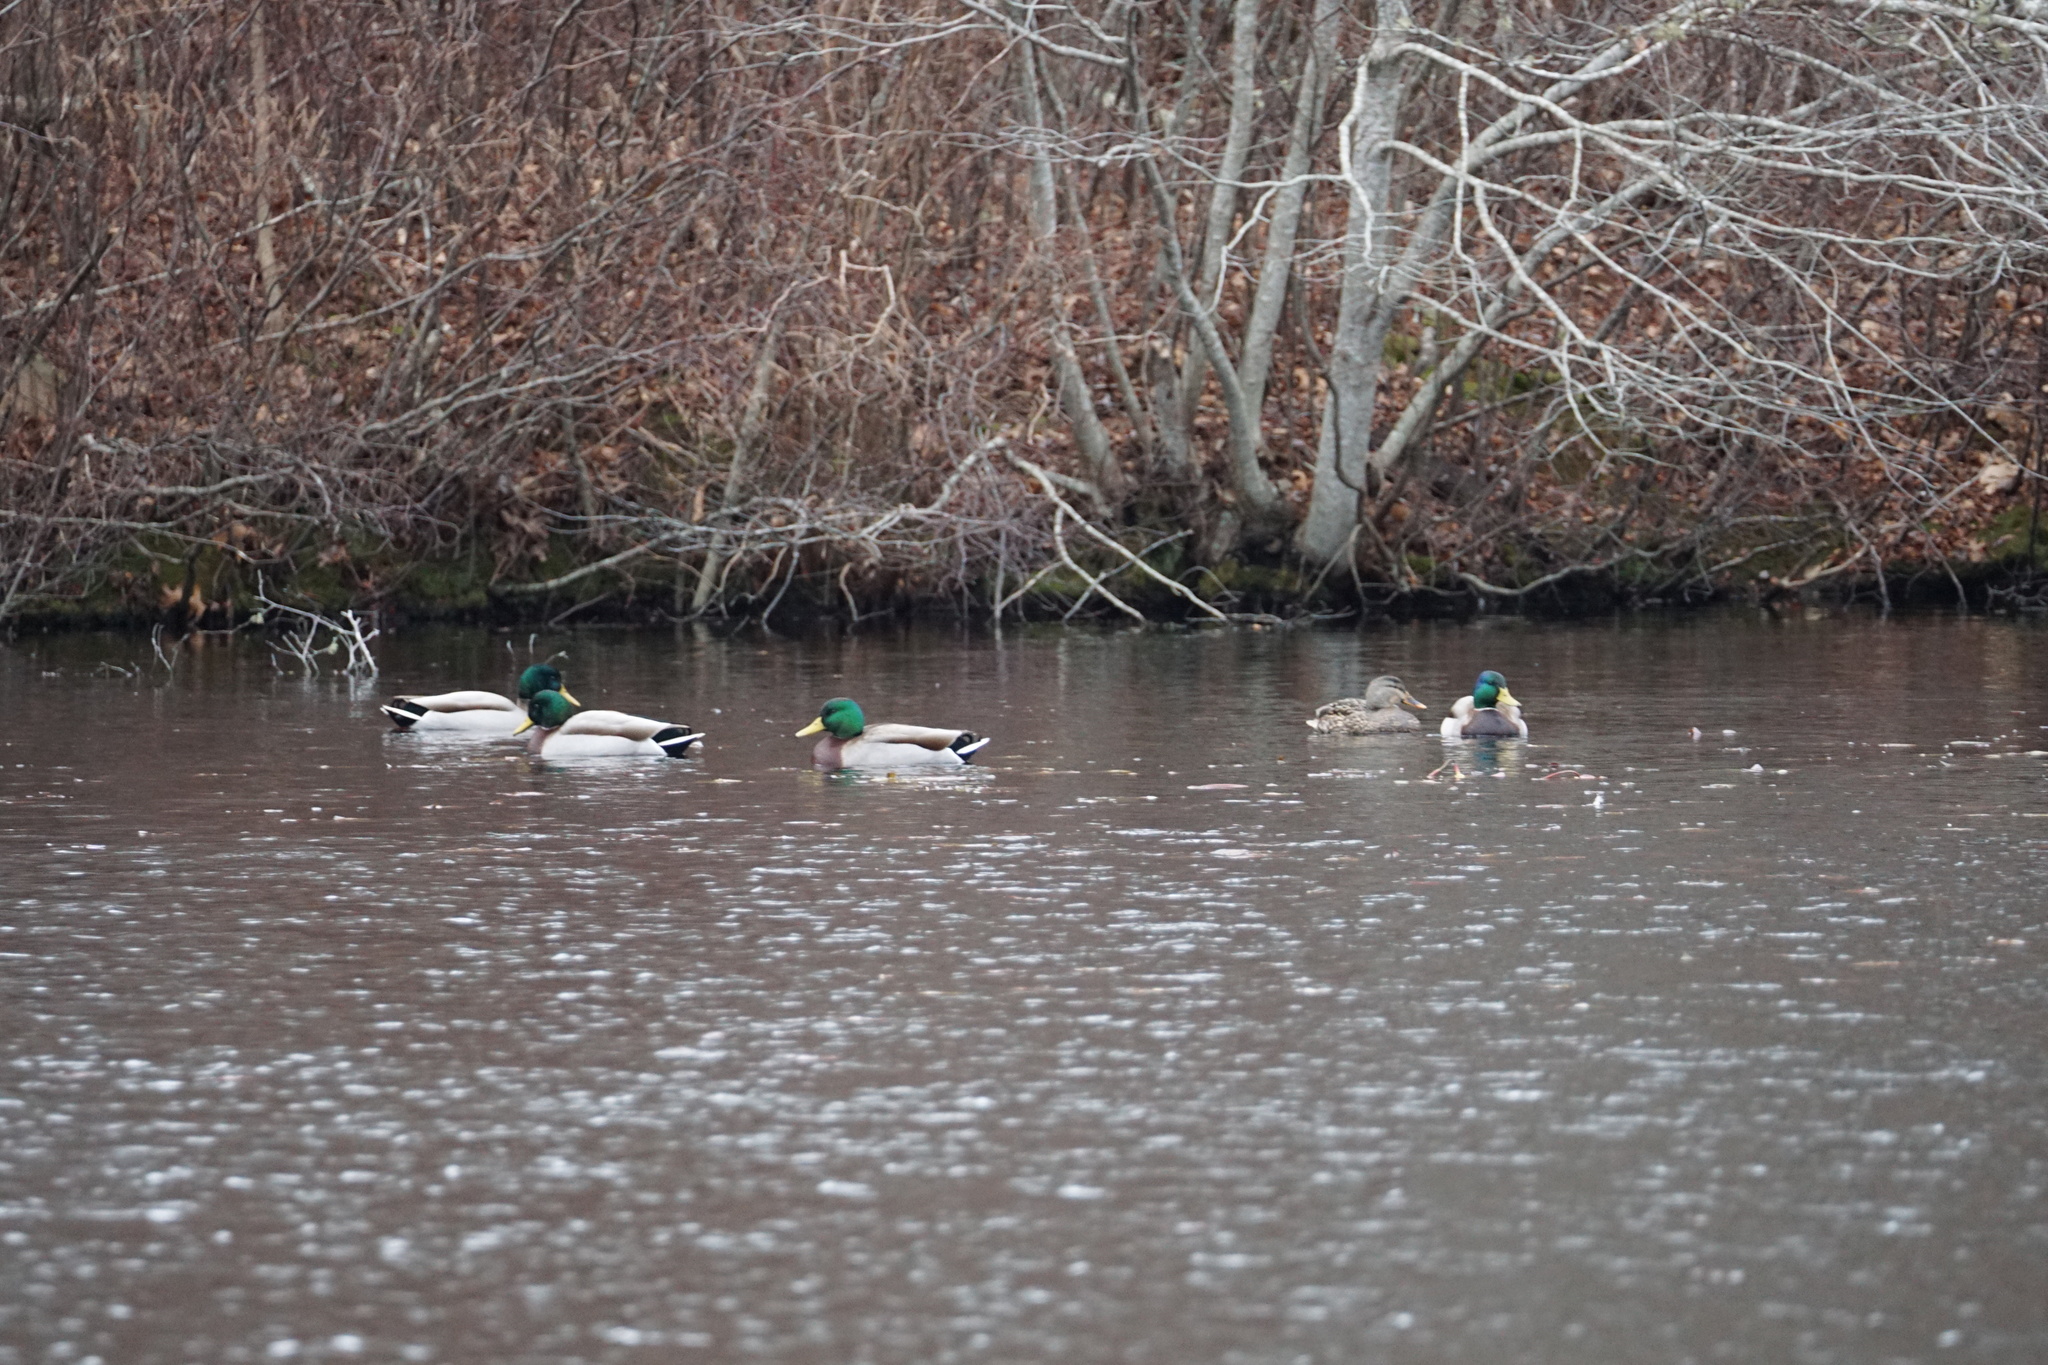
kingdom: Animalia
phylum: Chordata
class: Aves
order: Anseriformes
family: Anatidae
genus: Anas
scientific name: Anas platyrhynchos
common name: Mallard
